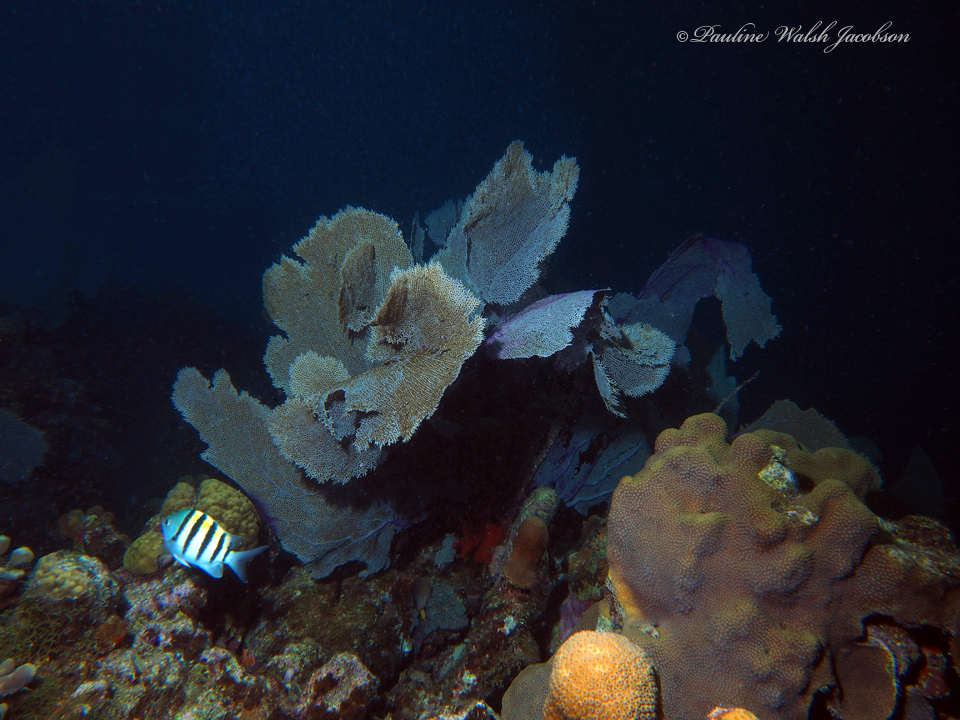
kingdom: Animalia
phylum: Chordata
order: Perciformes
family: Pomacentridae
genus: Abudefduf
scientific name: Abudefduf saxatilis
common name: Sergeant major
